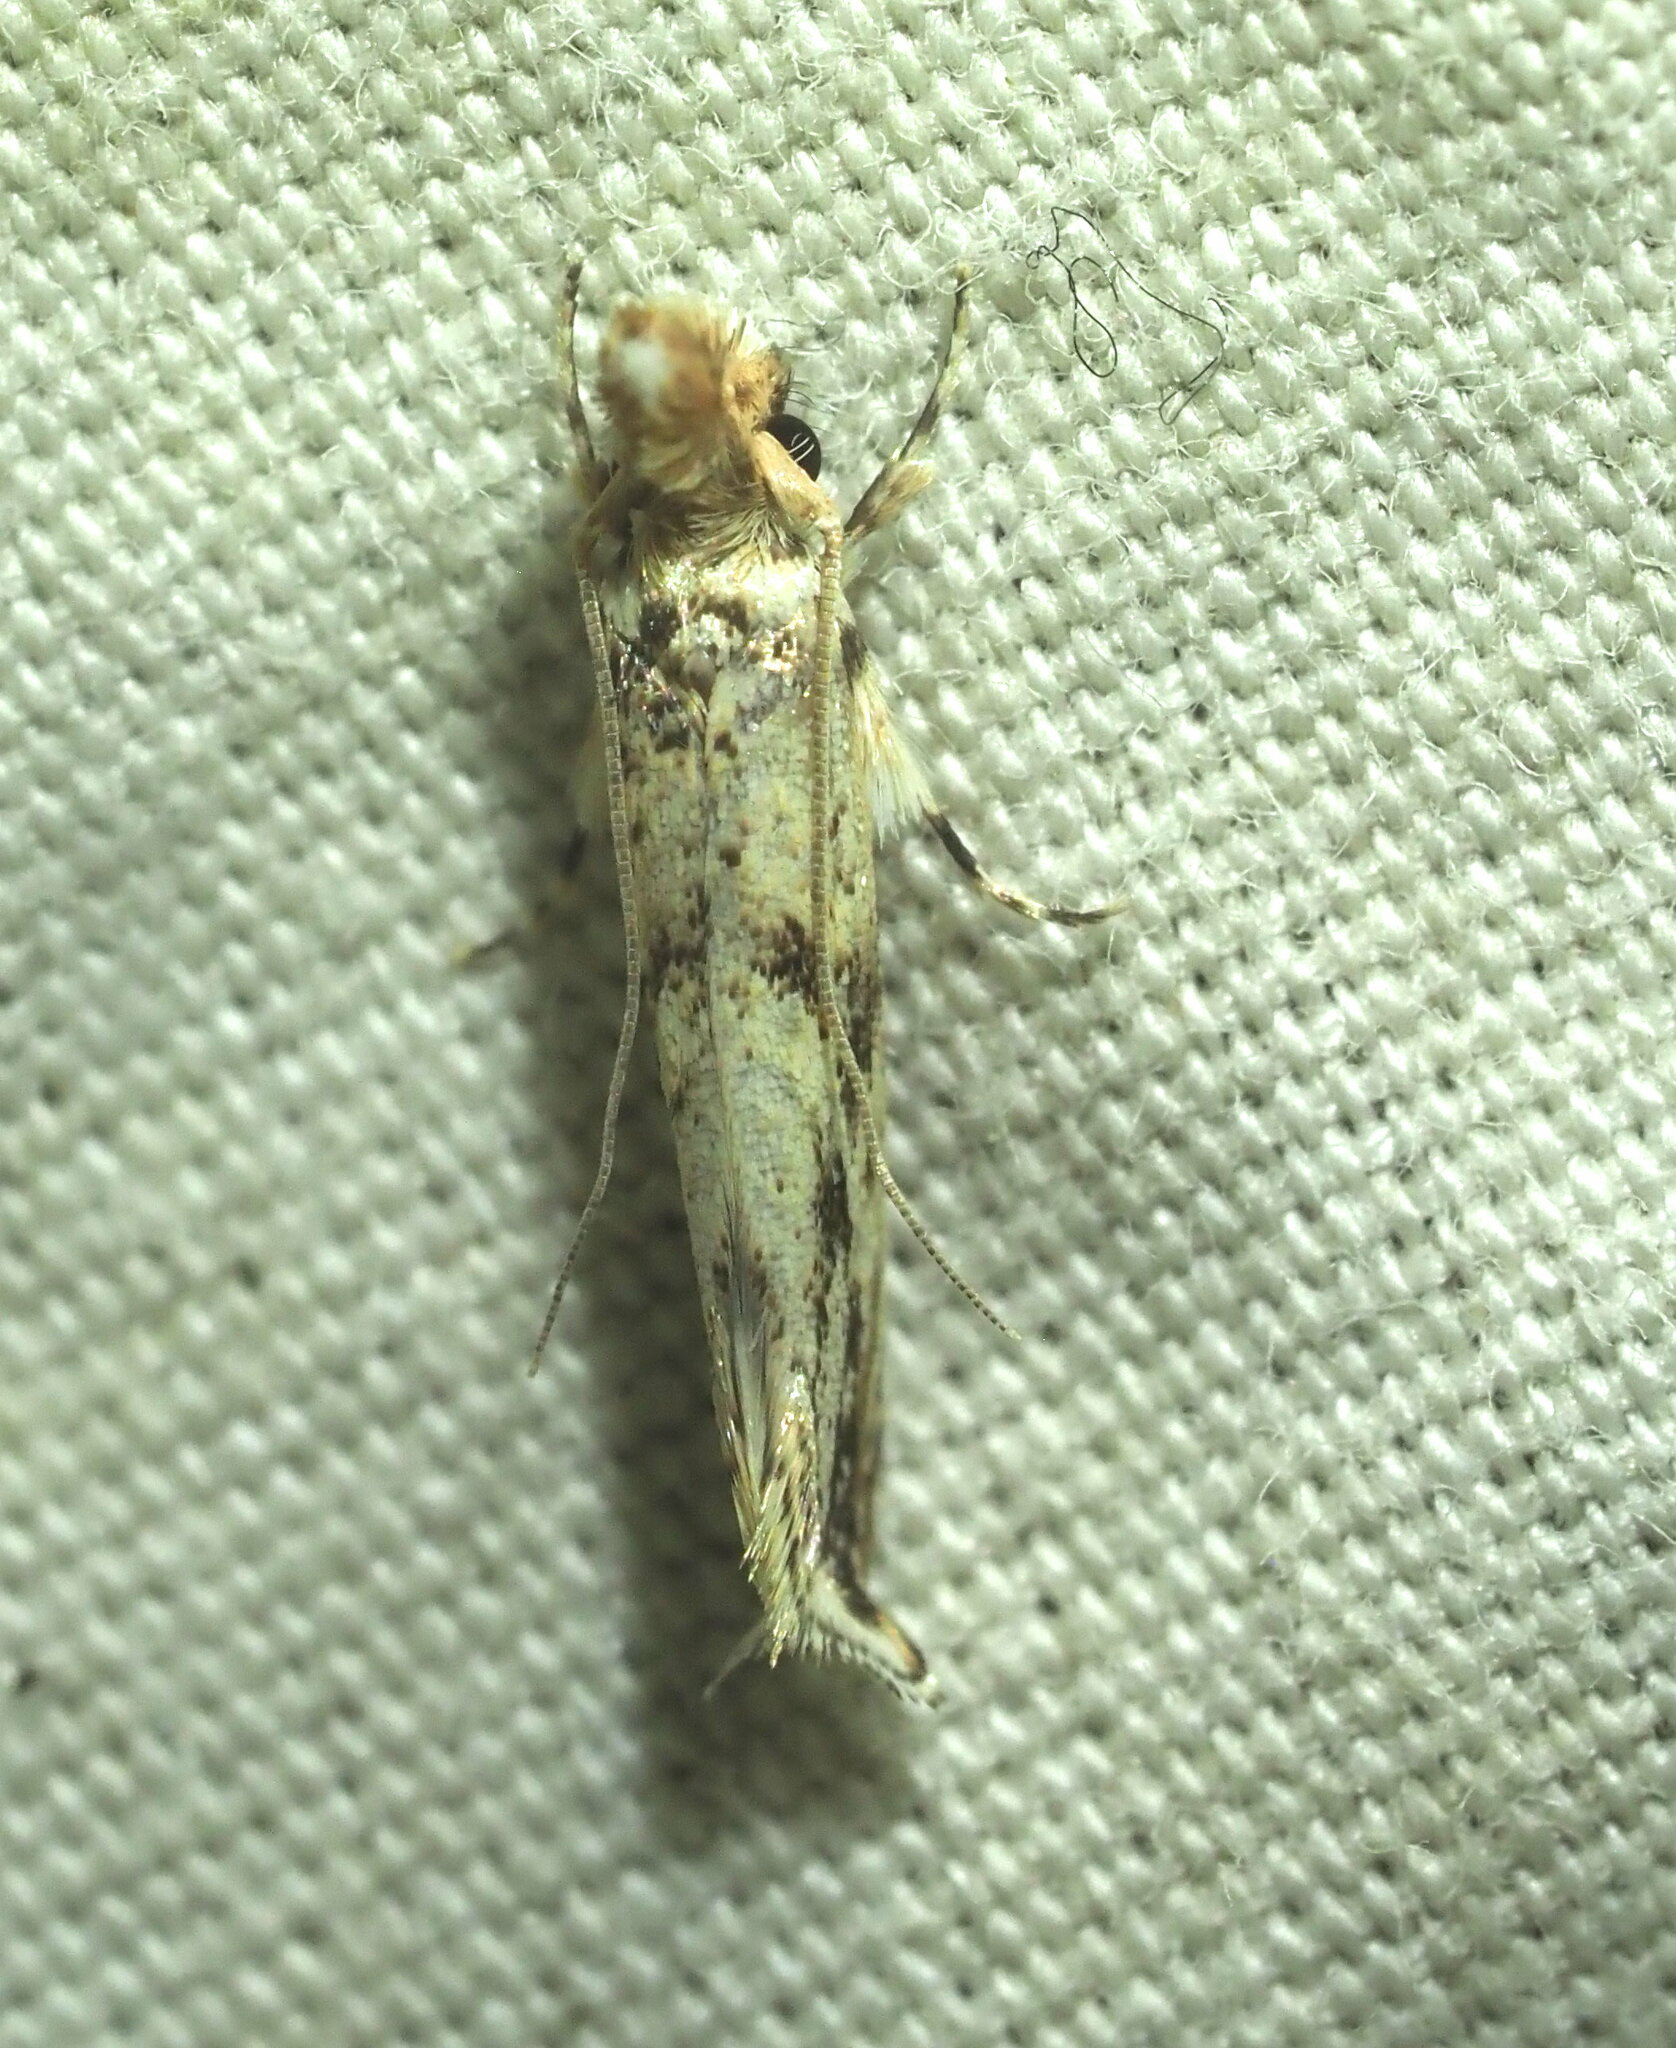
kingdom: Animalia
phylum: Arthropoda
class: Insecta
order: Lepidoptera
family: Tineidae
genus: Erechthias
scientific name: Erechthias pelotricha
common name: Fungus moth
